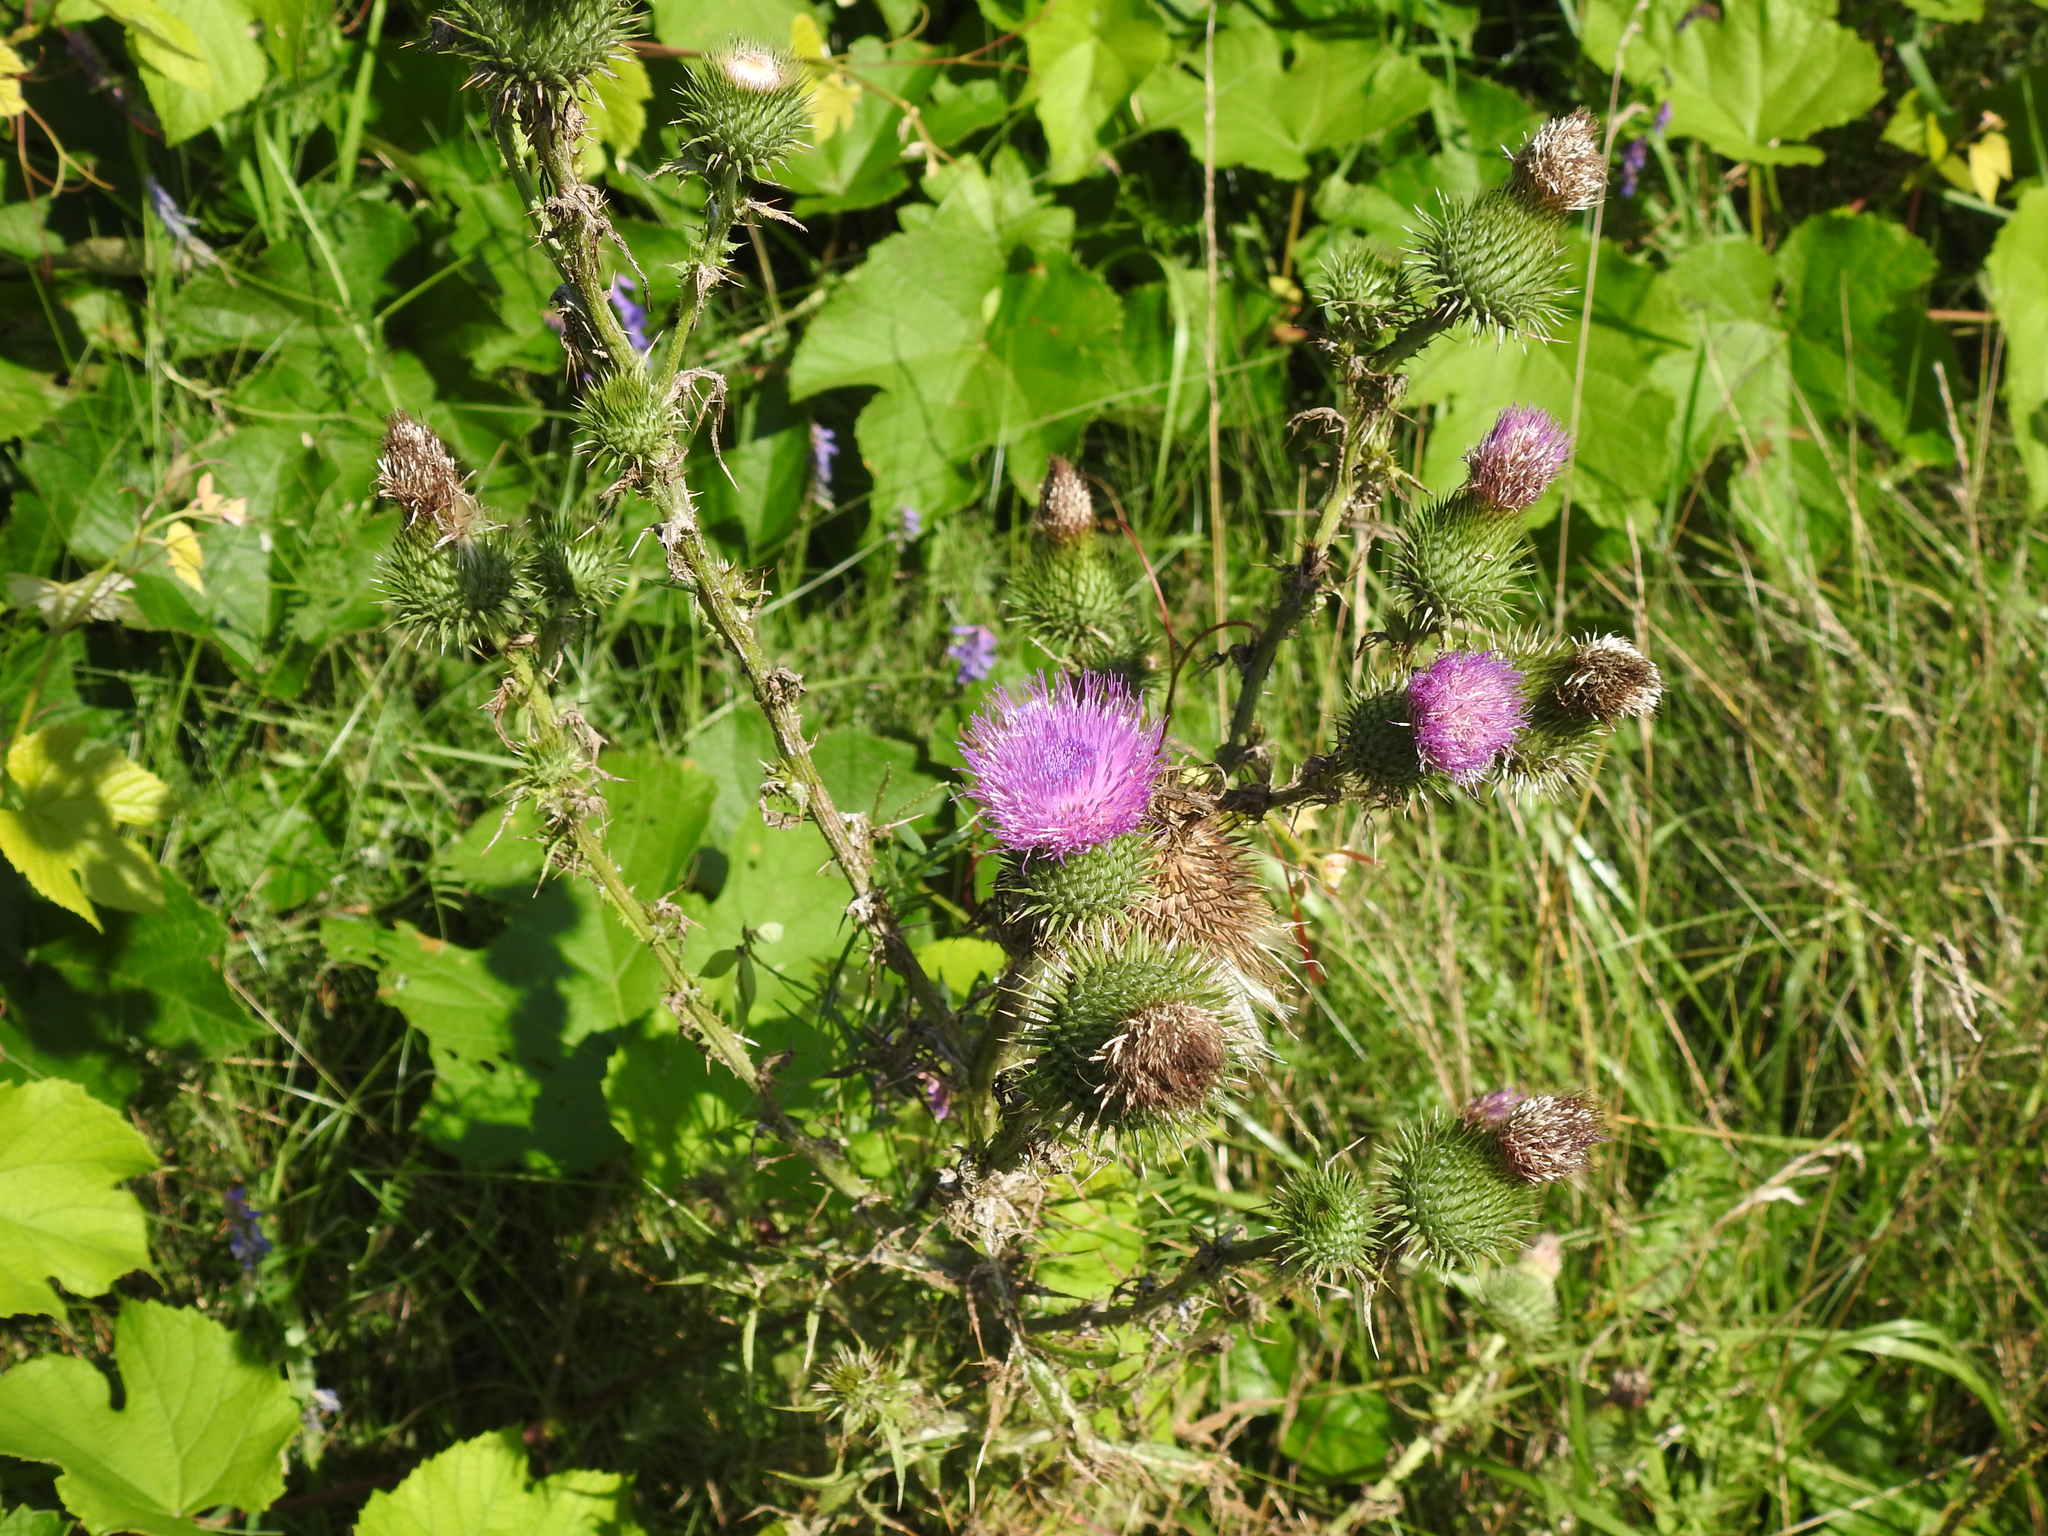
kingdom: Plantae
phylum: Tracheophyta
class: Magnoliopsida
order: Asterales
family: Asteraceae
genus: Cirsium
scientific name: Cirsium vulgare
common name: Bull thistle
